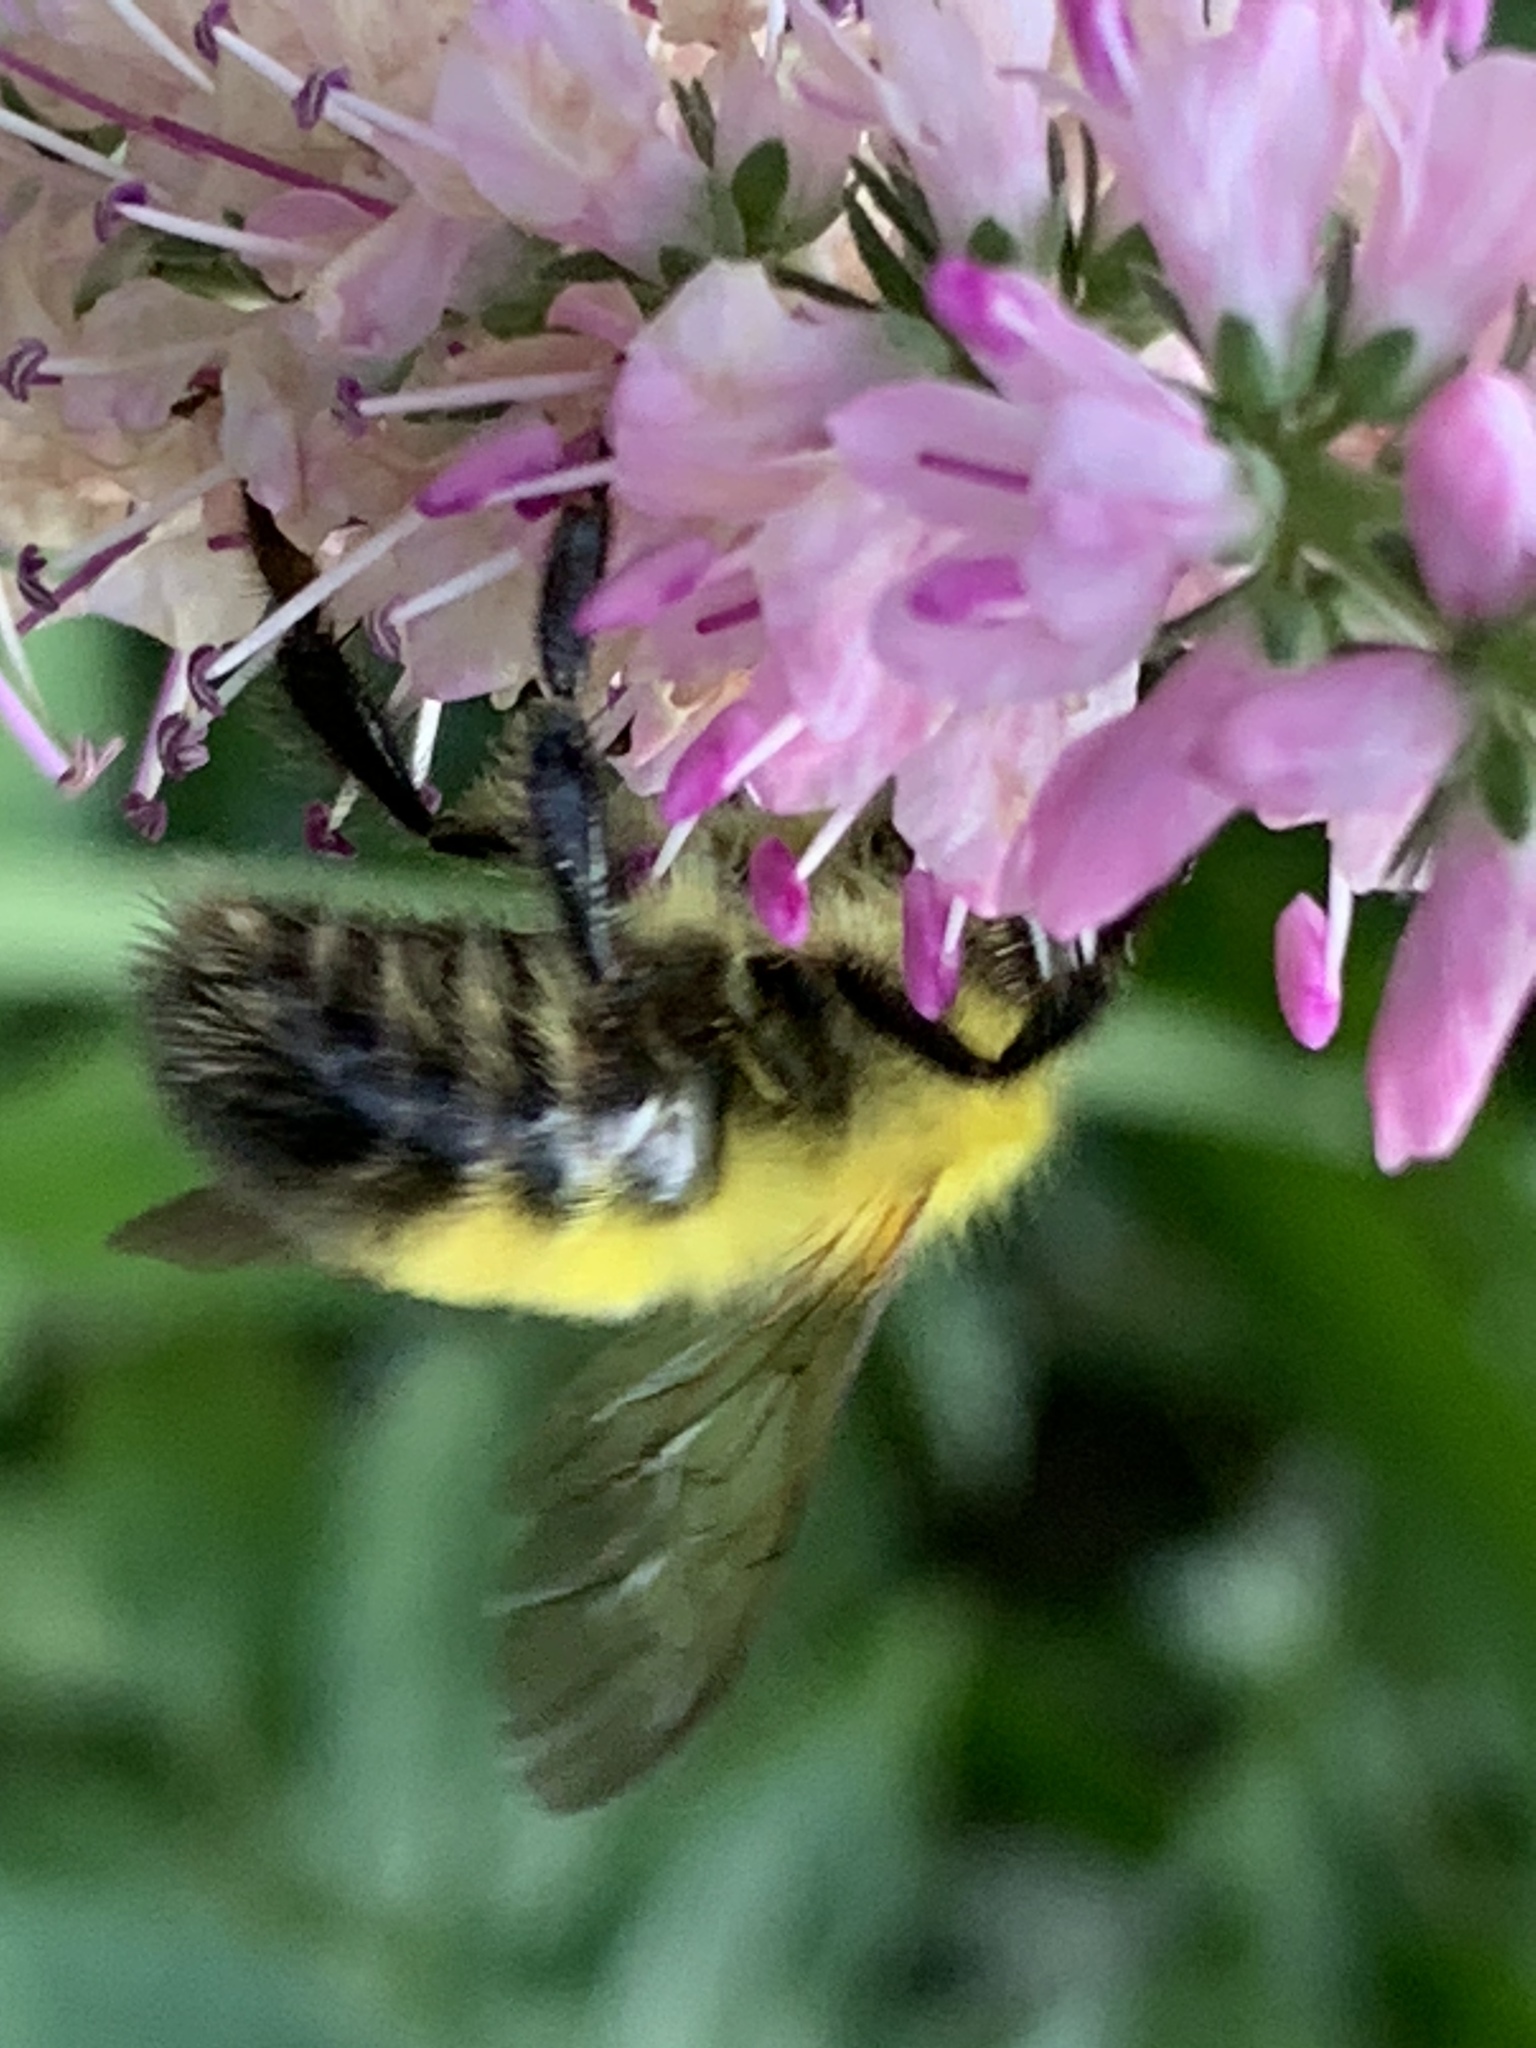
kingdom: Animalia
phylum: Arthropoda
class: Insecta
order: Hymenoptera
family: Apidae
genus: Bombus
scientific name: Bombus perplexus
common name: Confusing bumble bee
